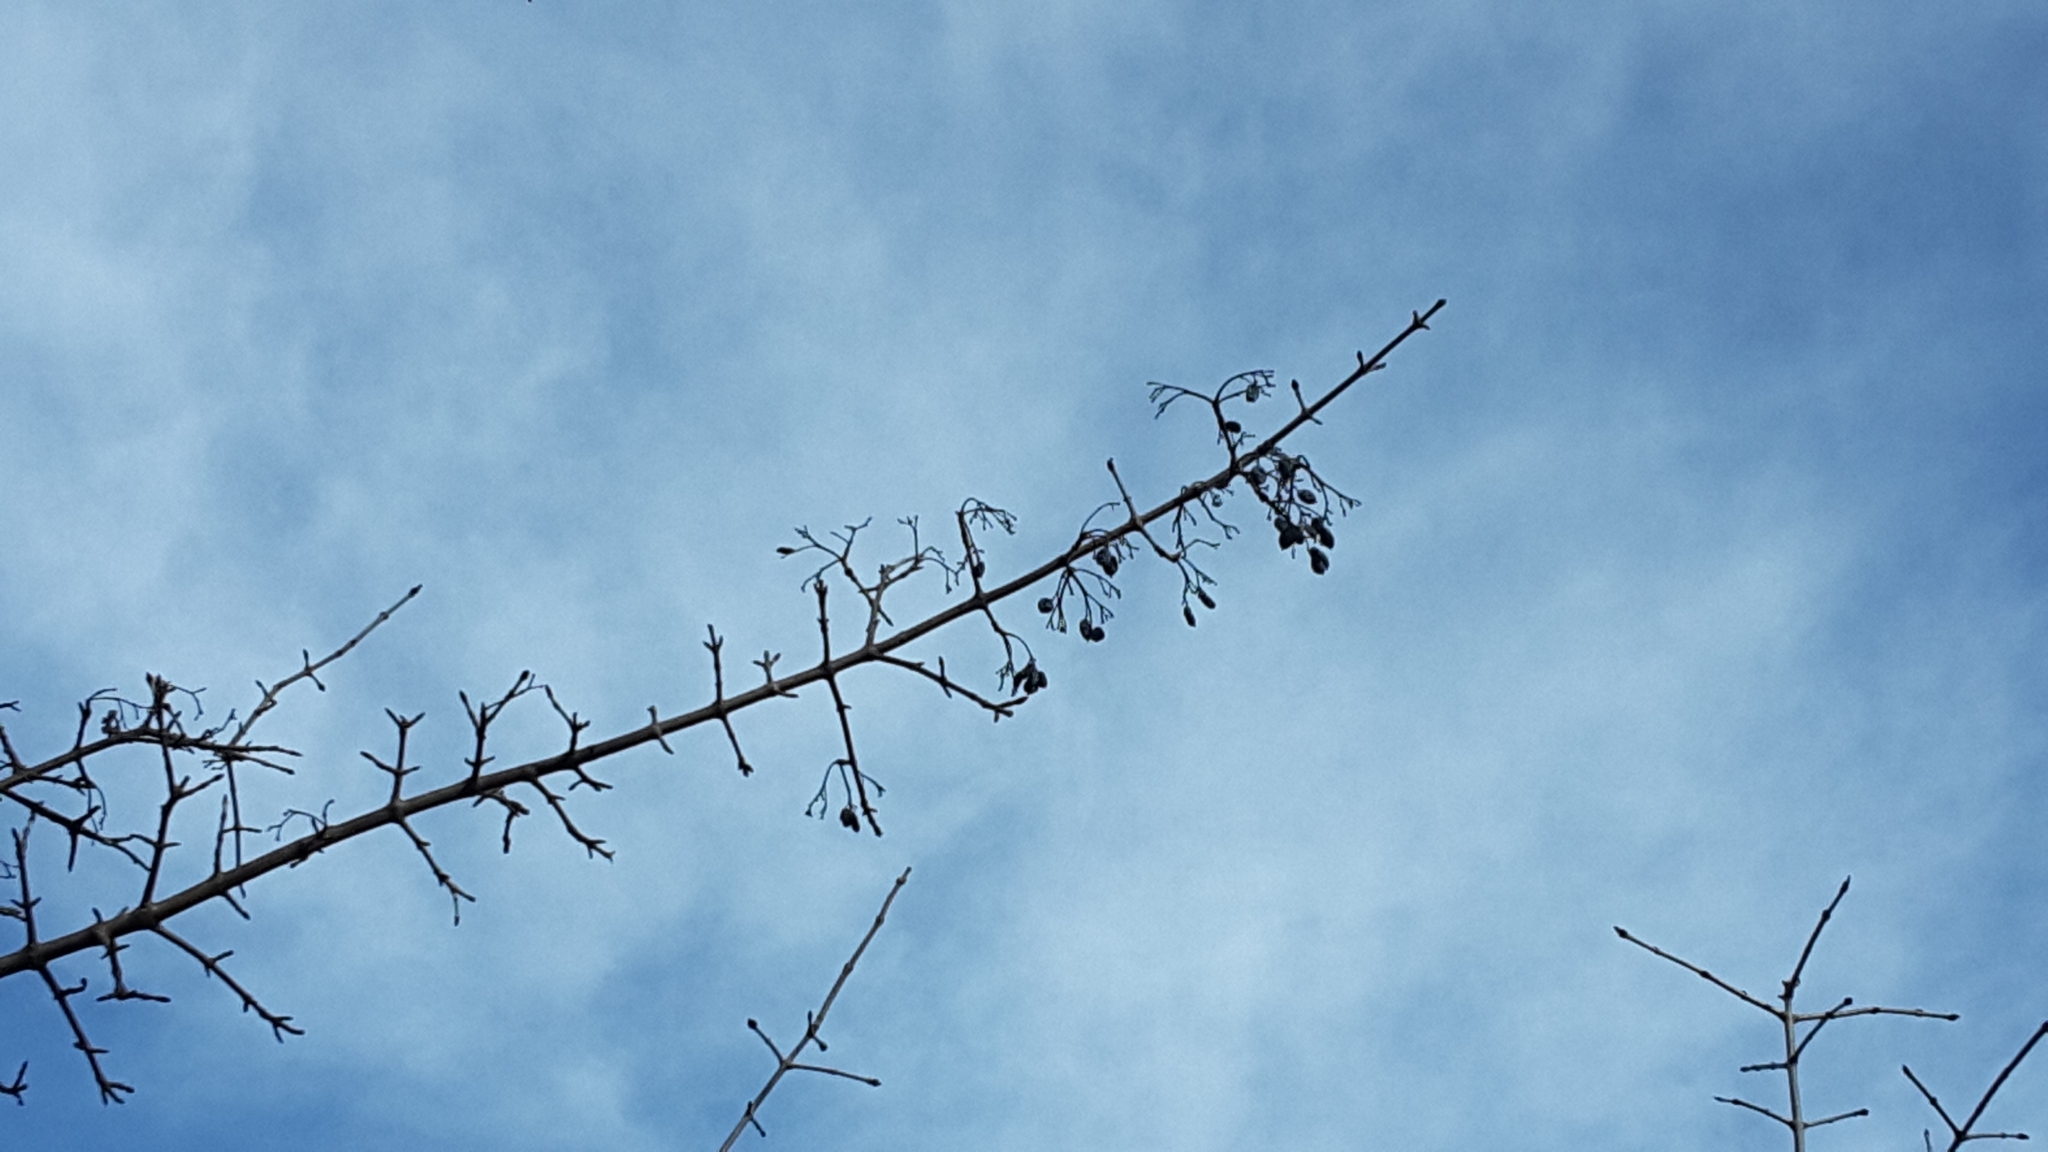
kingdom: Plantae
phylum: Tracheophyta
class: Magnoliopsida
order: Dipsacales
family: Viburnaceae
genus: Viburnum
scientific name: Viburnum rufidulum
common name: Blue haw
